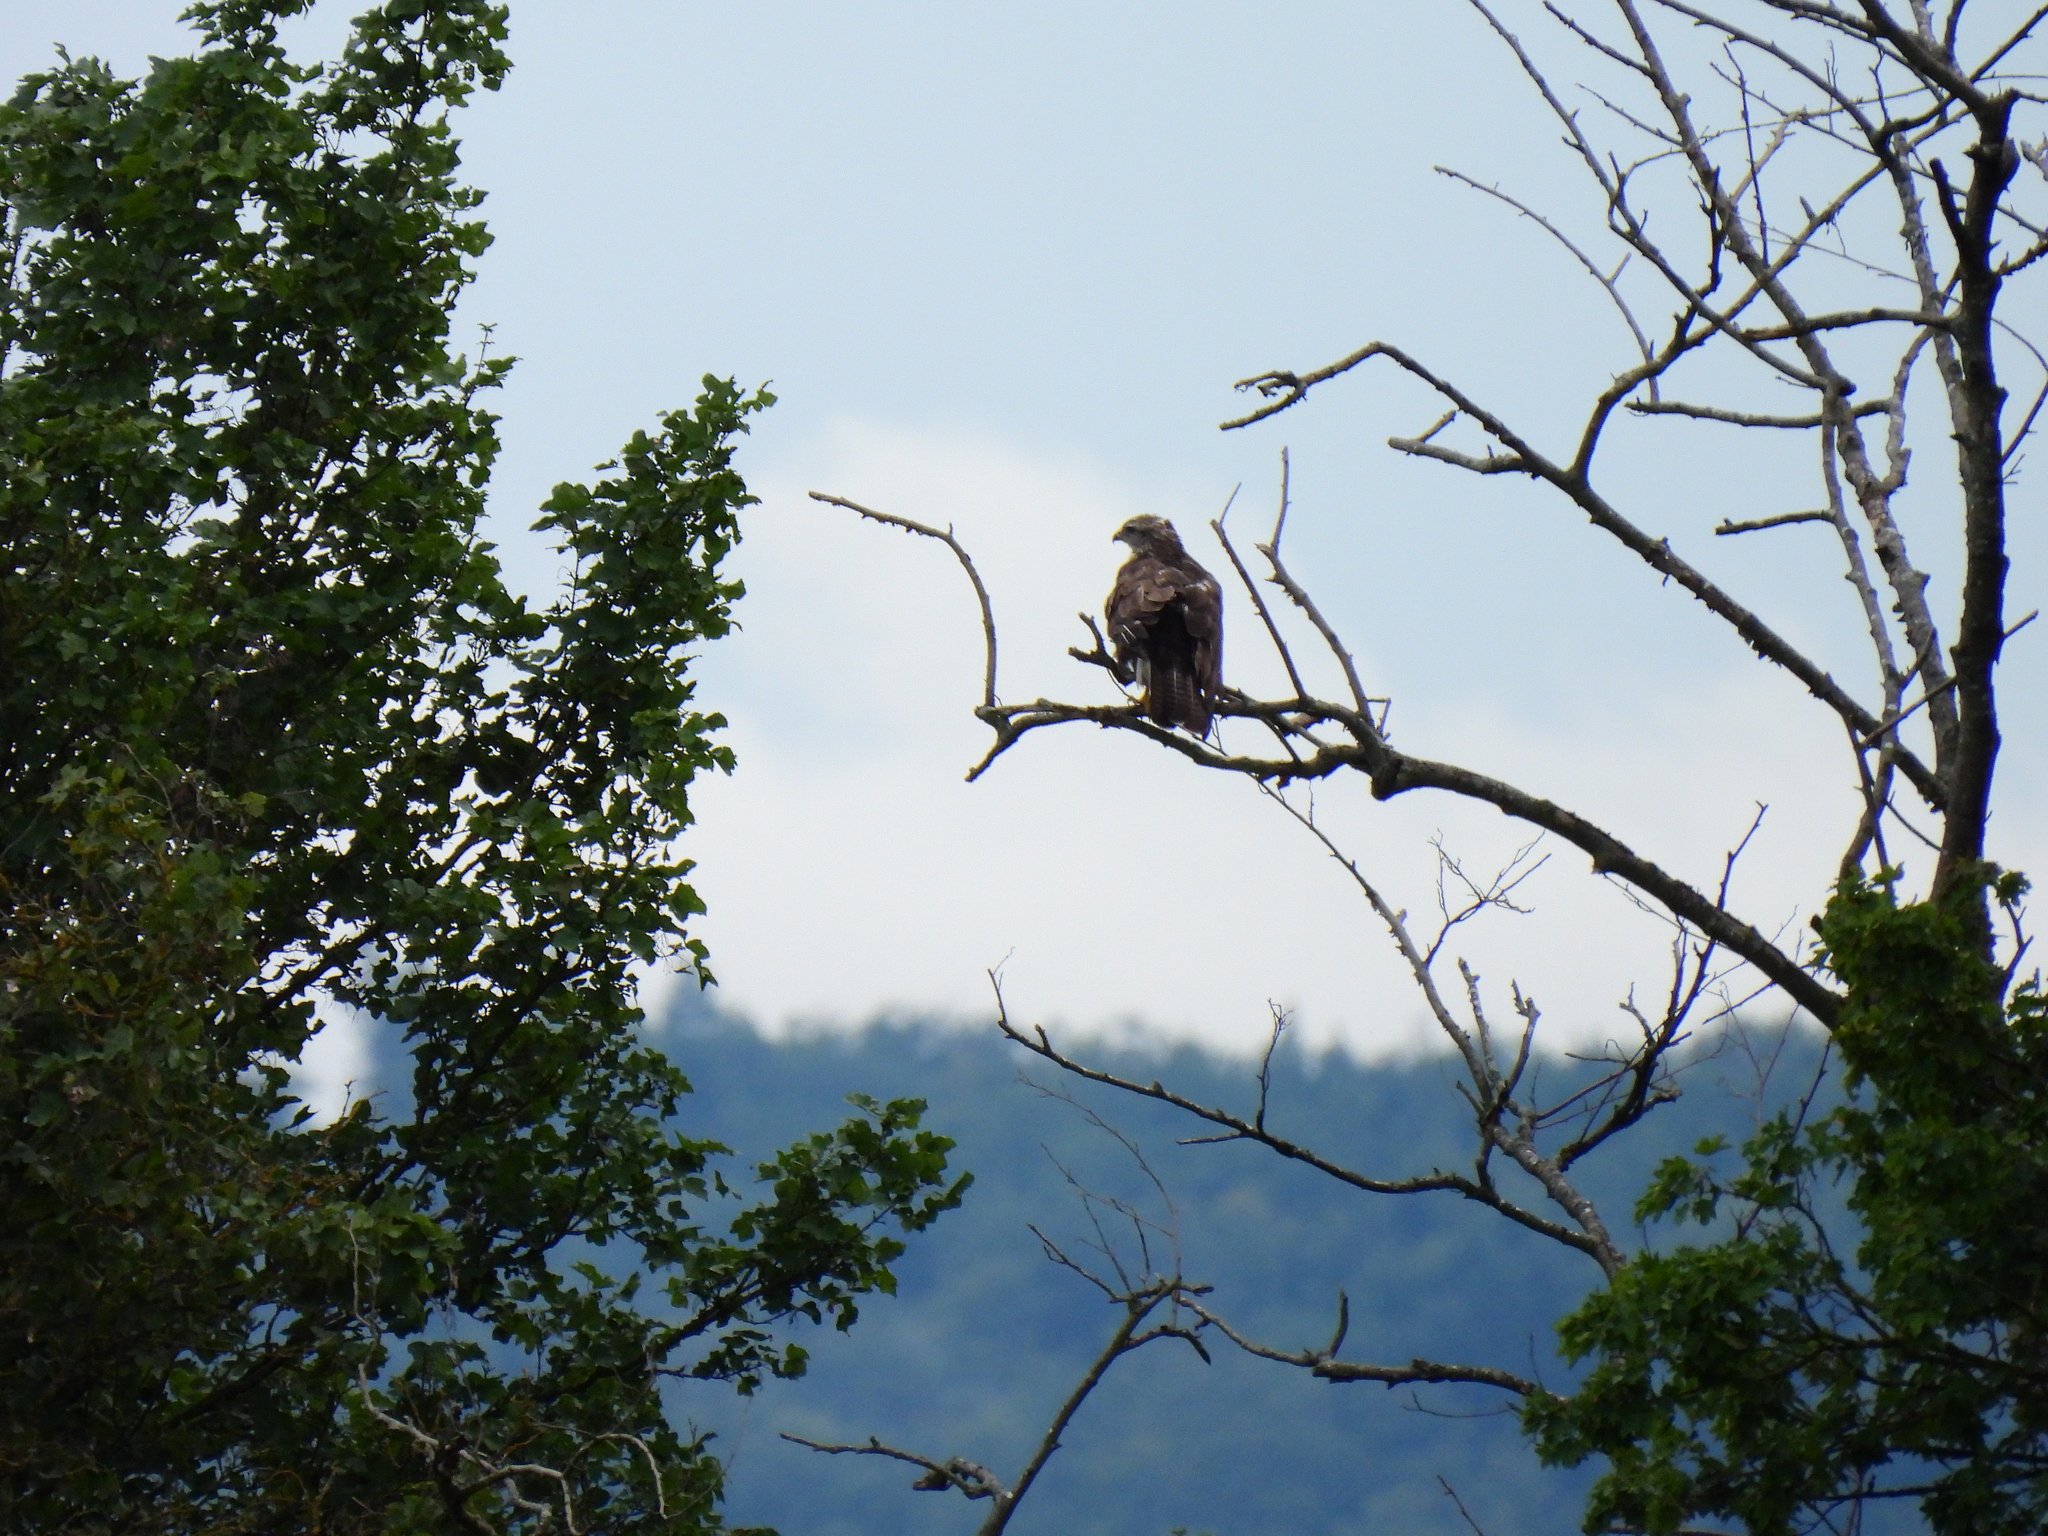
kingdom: Animalia
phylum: Chordata
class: Aves
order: Accipitriformes
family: Accipitridae
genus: Buteo
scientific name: Buteo buteo
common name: Common buzzard
